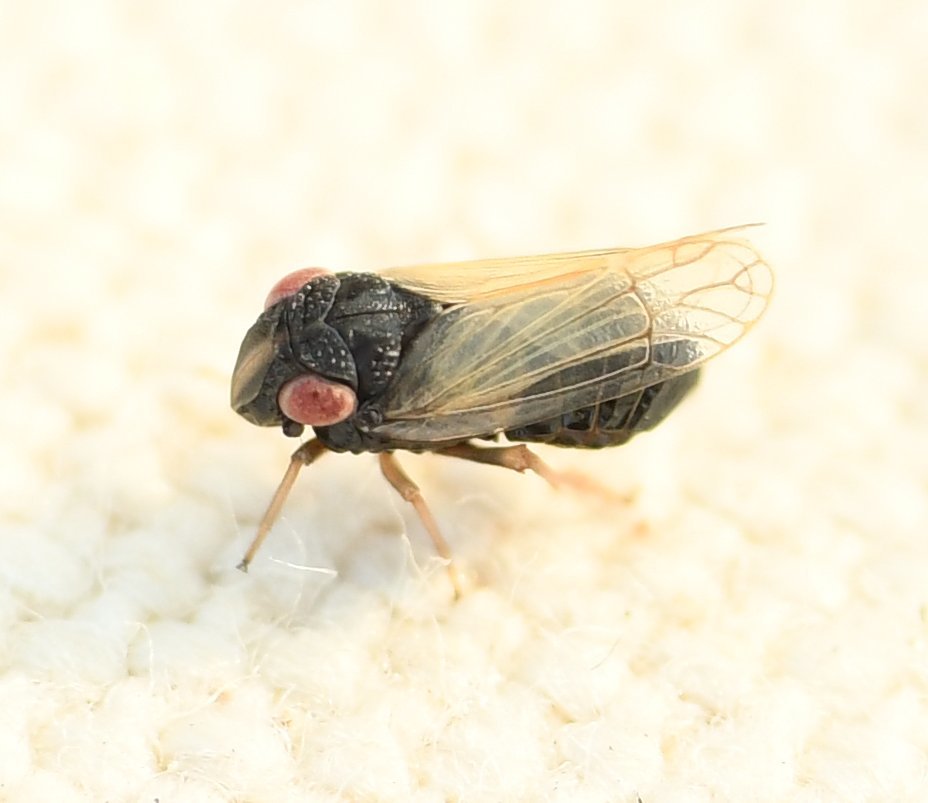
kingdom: Animalia
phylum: Arthropoda
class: Insecta
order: Hemiptera
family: Caliscelidae
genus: Bruchomorpha
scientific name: Bruchomorpha tristis
